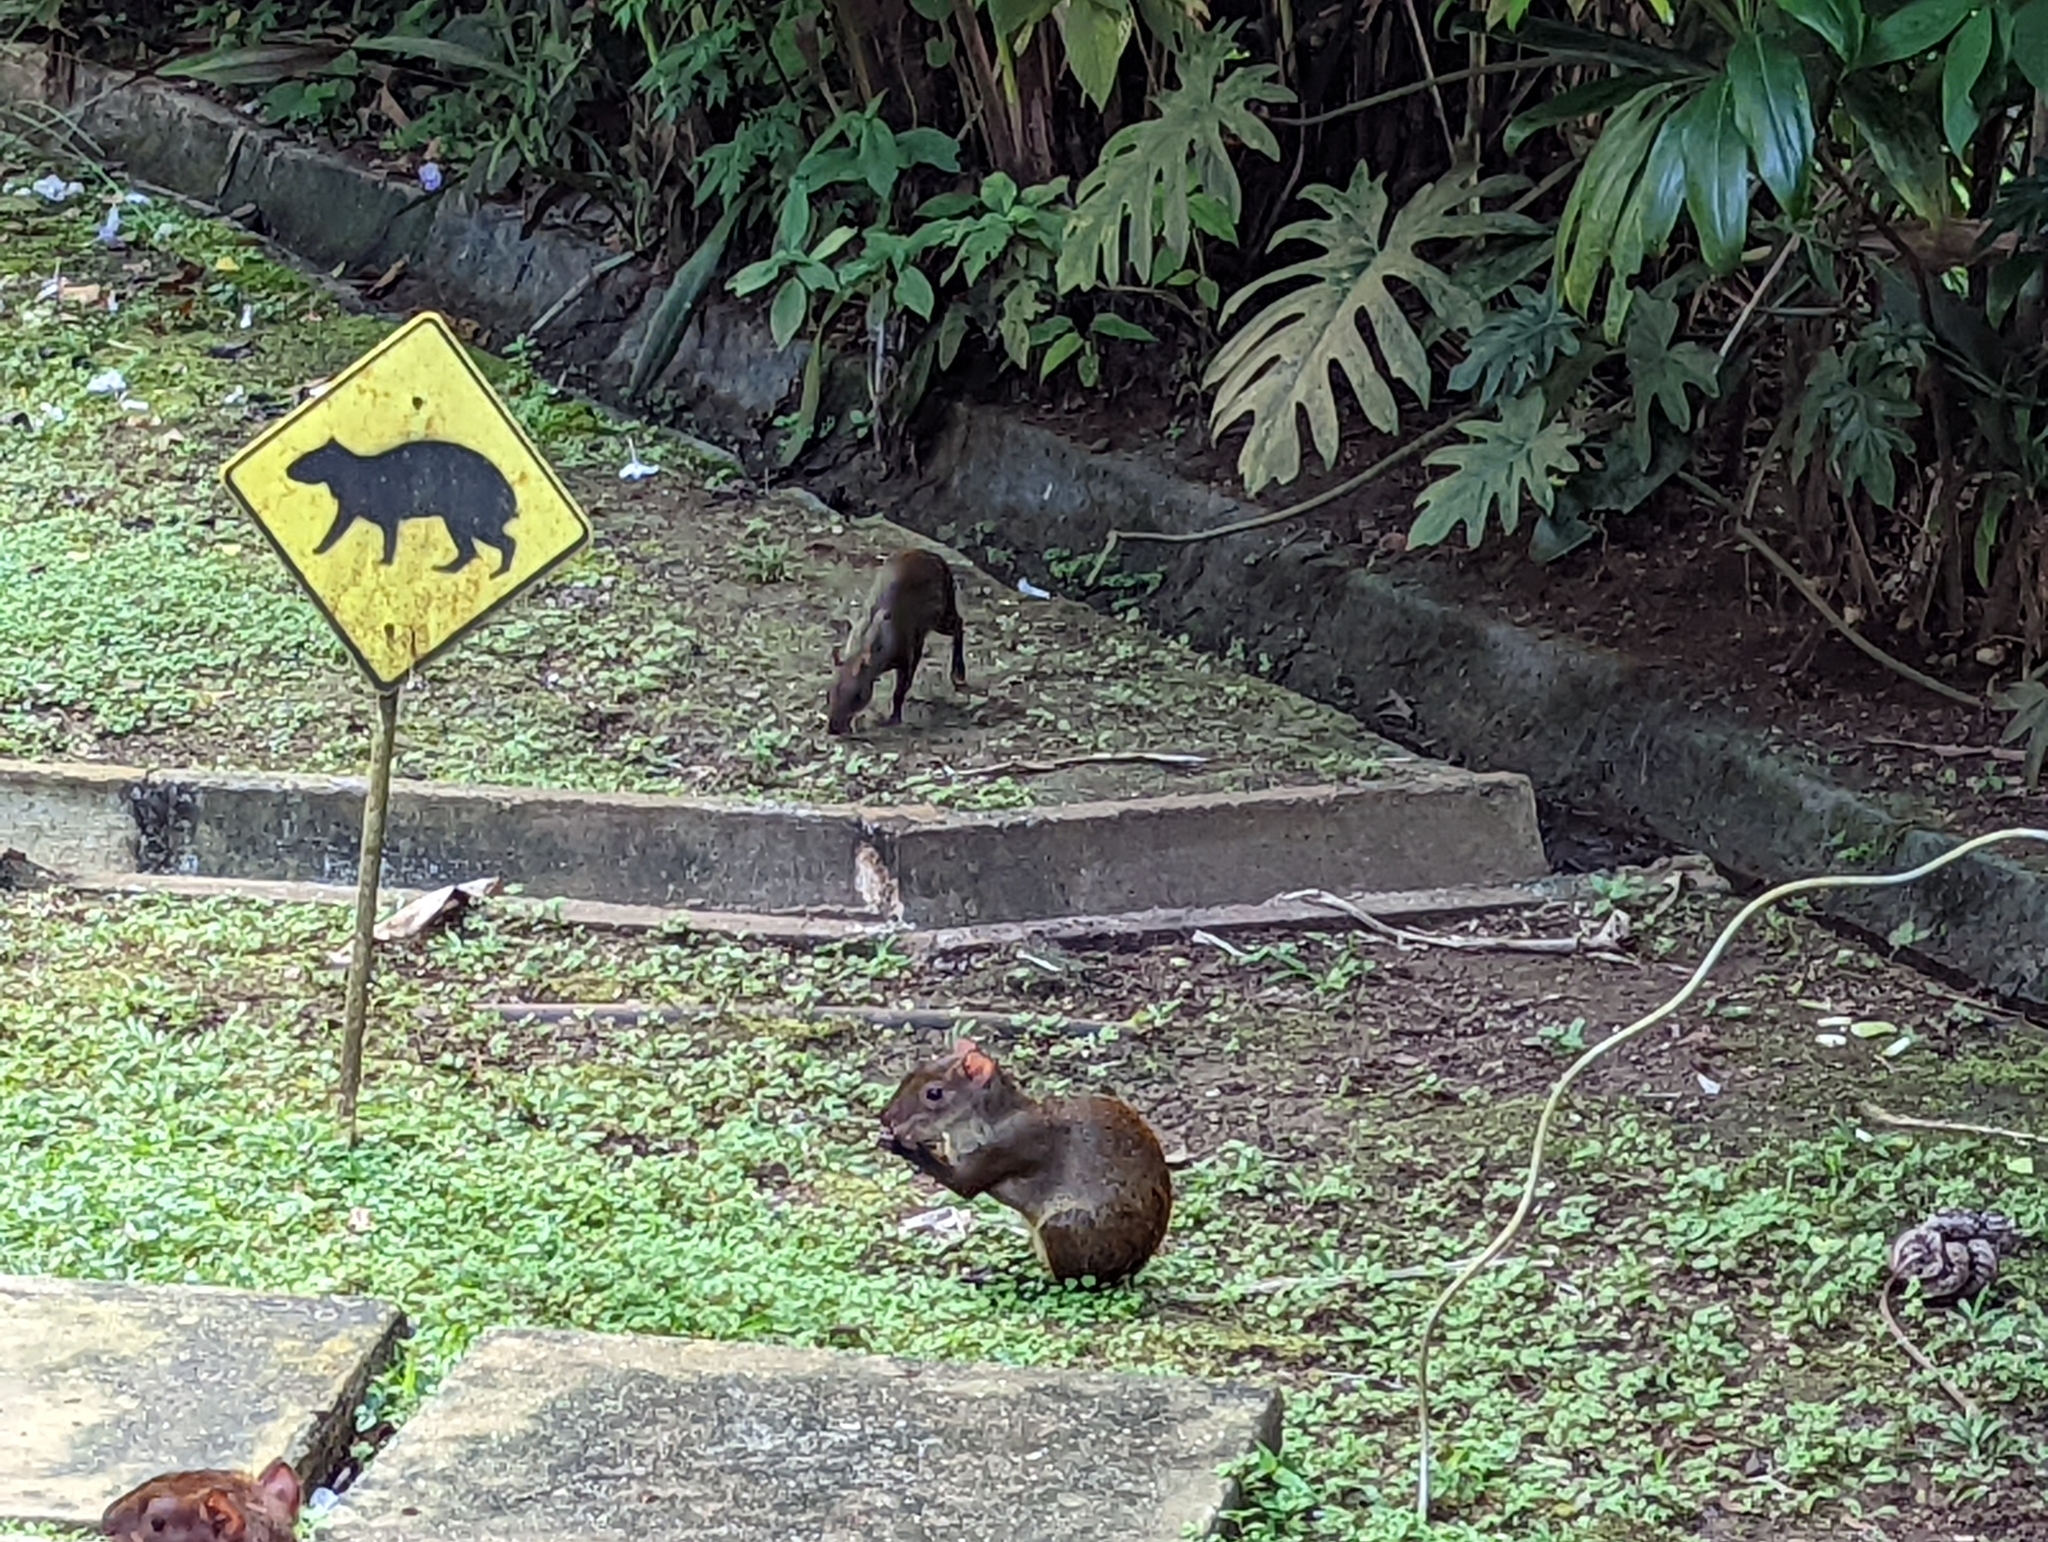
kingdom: Animalia
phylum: Chordata
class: Mammalia
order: Rodentia
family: Dasyproctidae
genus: Dasyprocta
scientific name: Dasyprocta punctata
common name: Central american agouti
